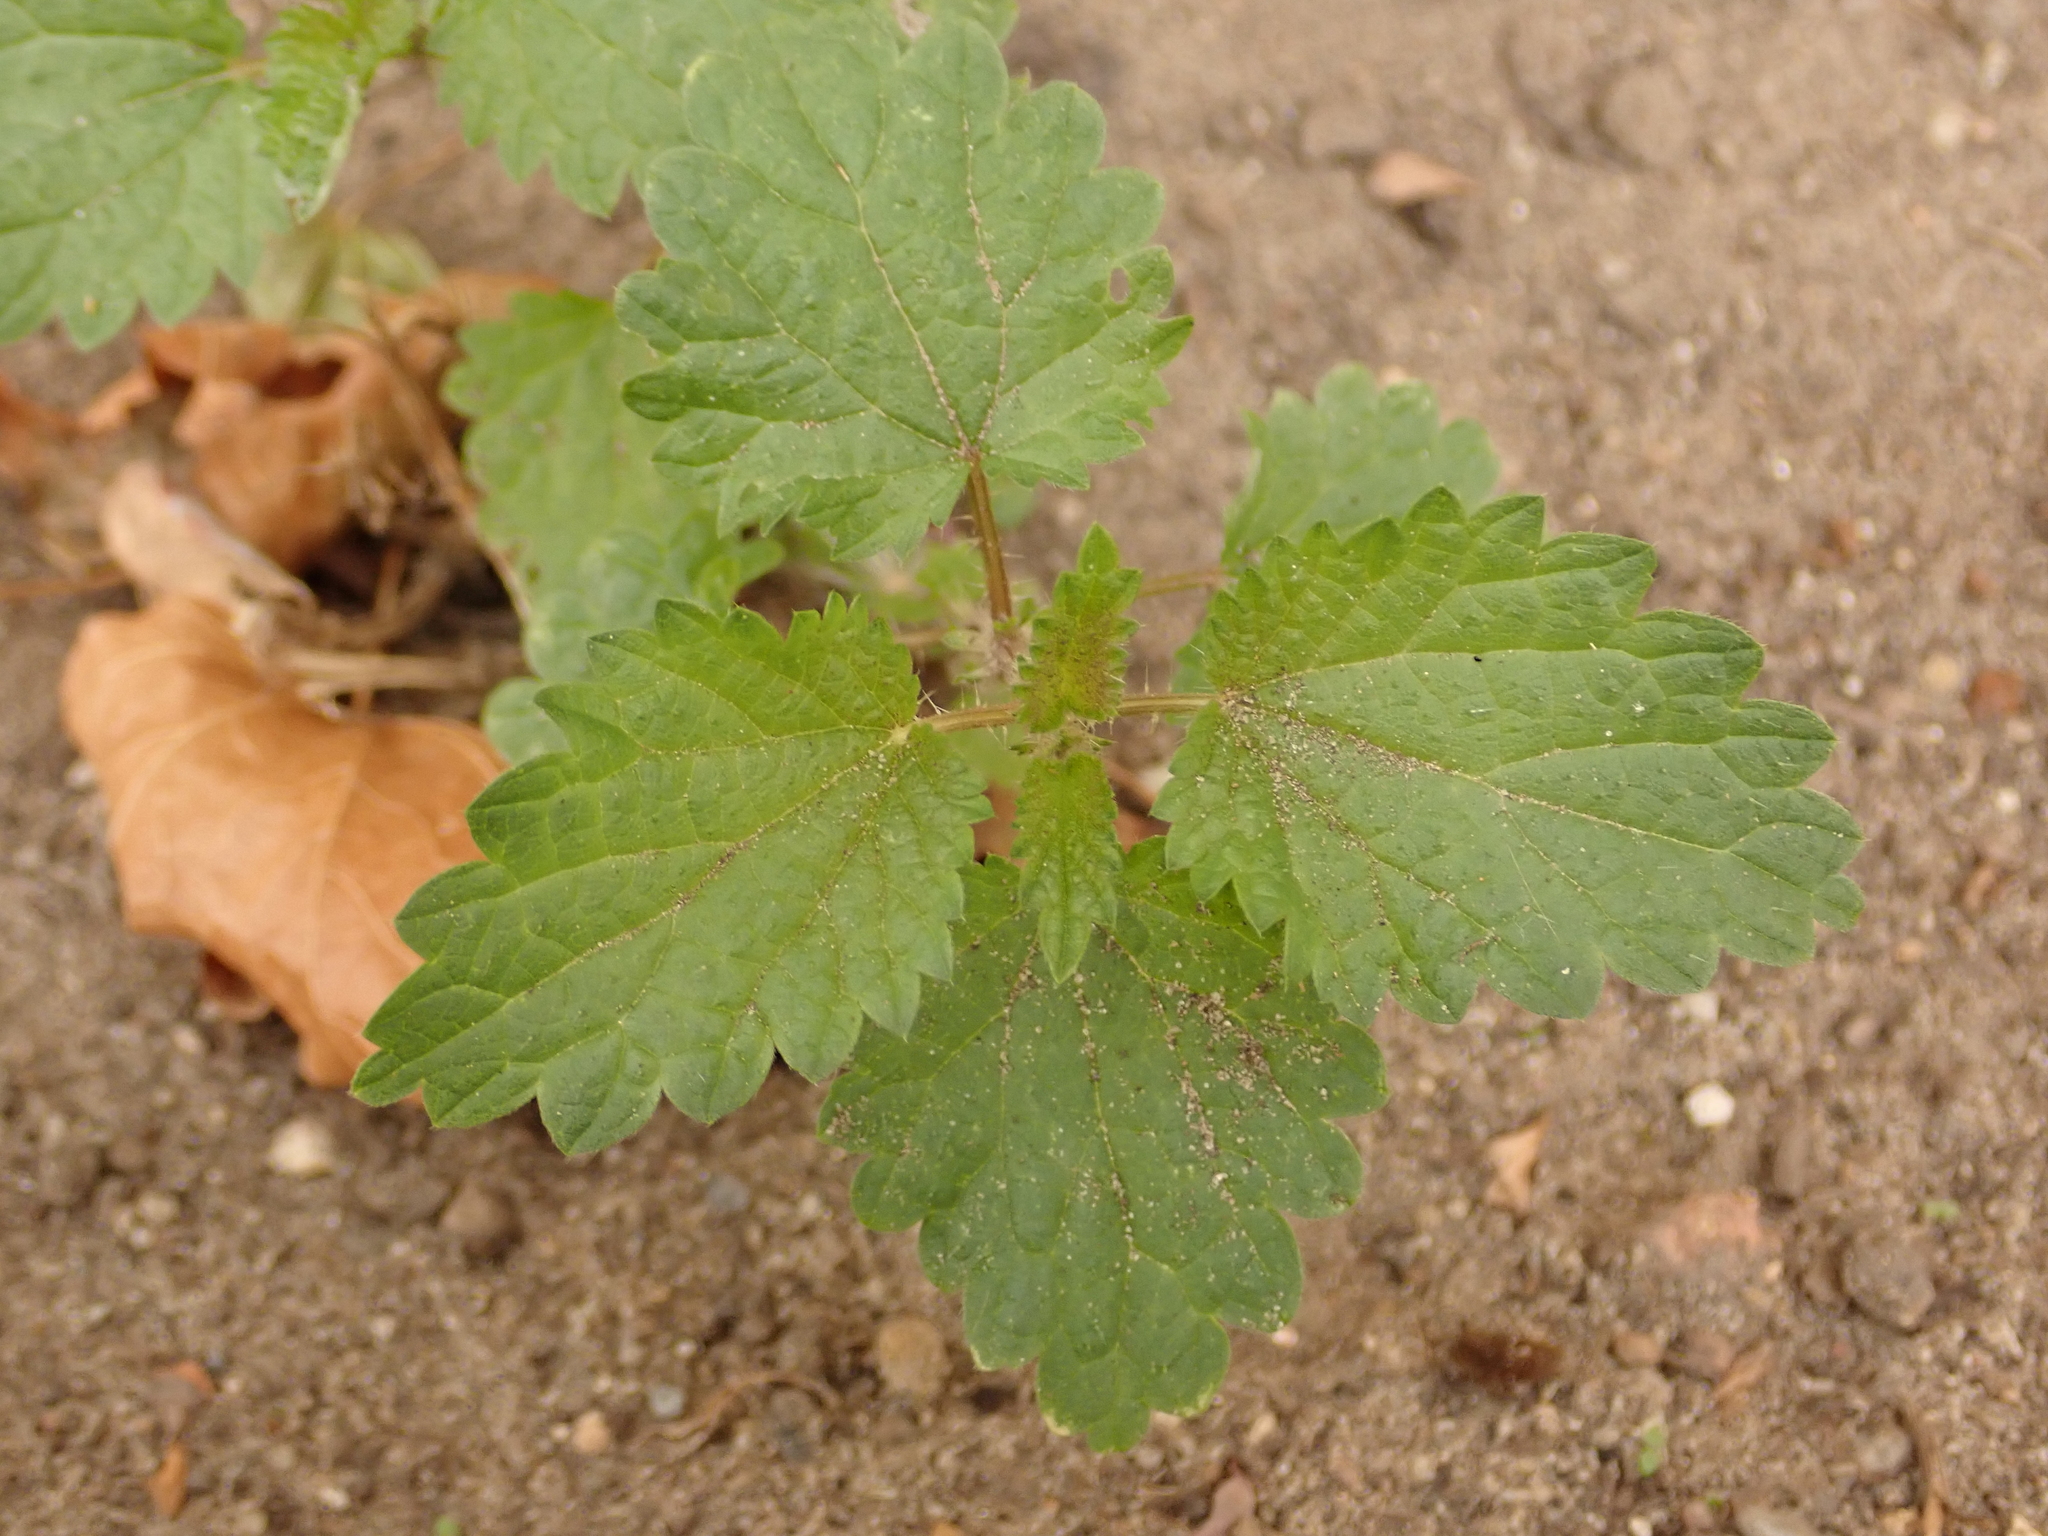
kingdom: Plantae
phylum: Tracheophyta
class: Magnoliopsida
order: Rosales
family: Urticaceae
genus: Urtica
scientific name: Urtica dioica
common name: Common nettle
